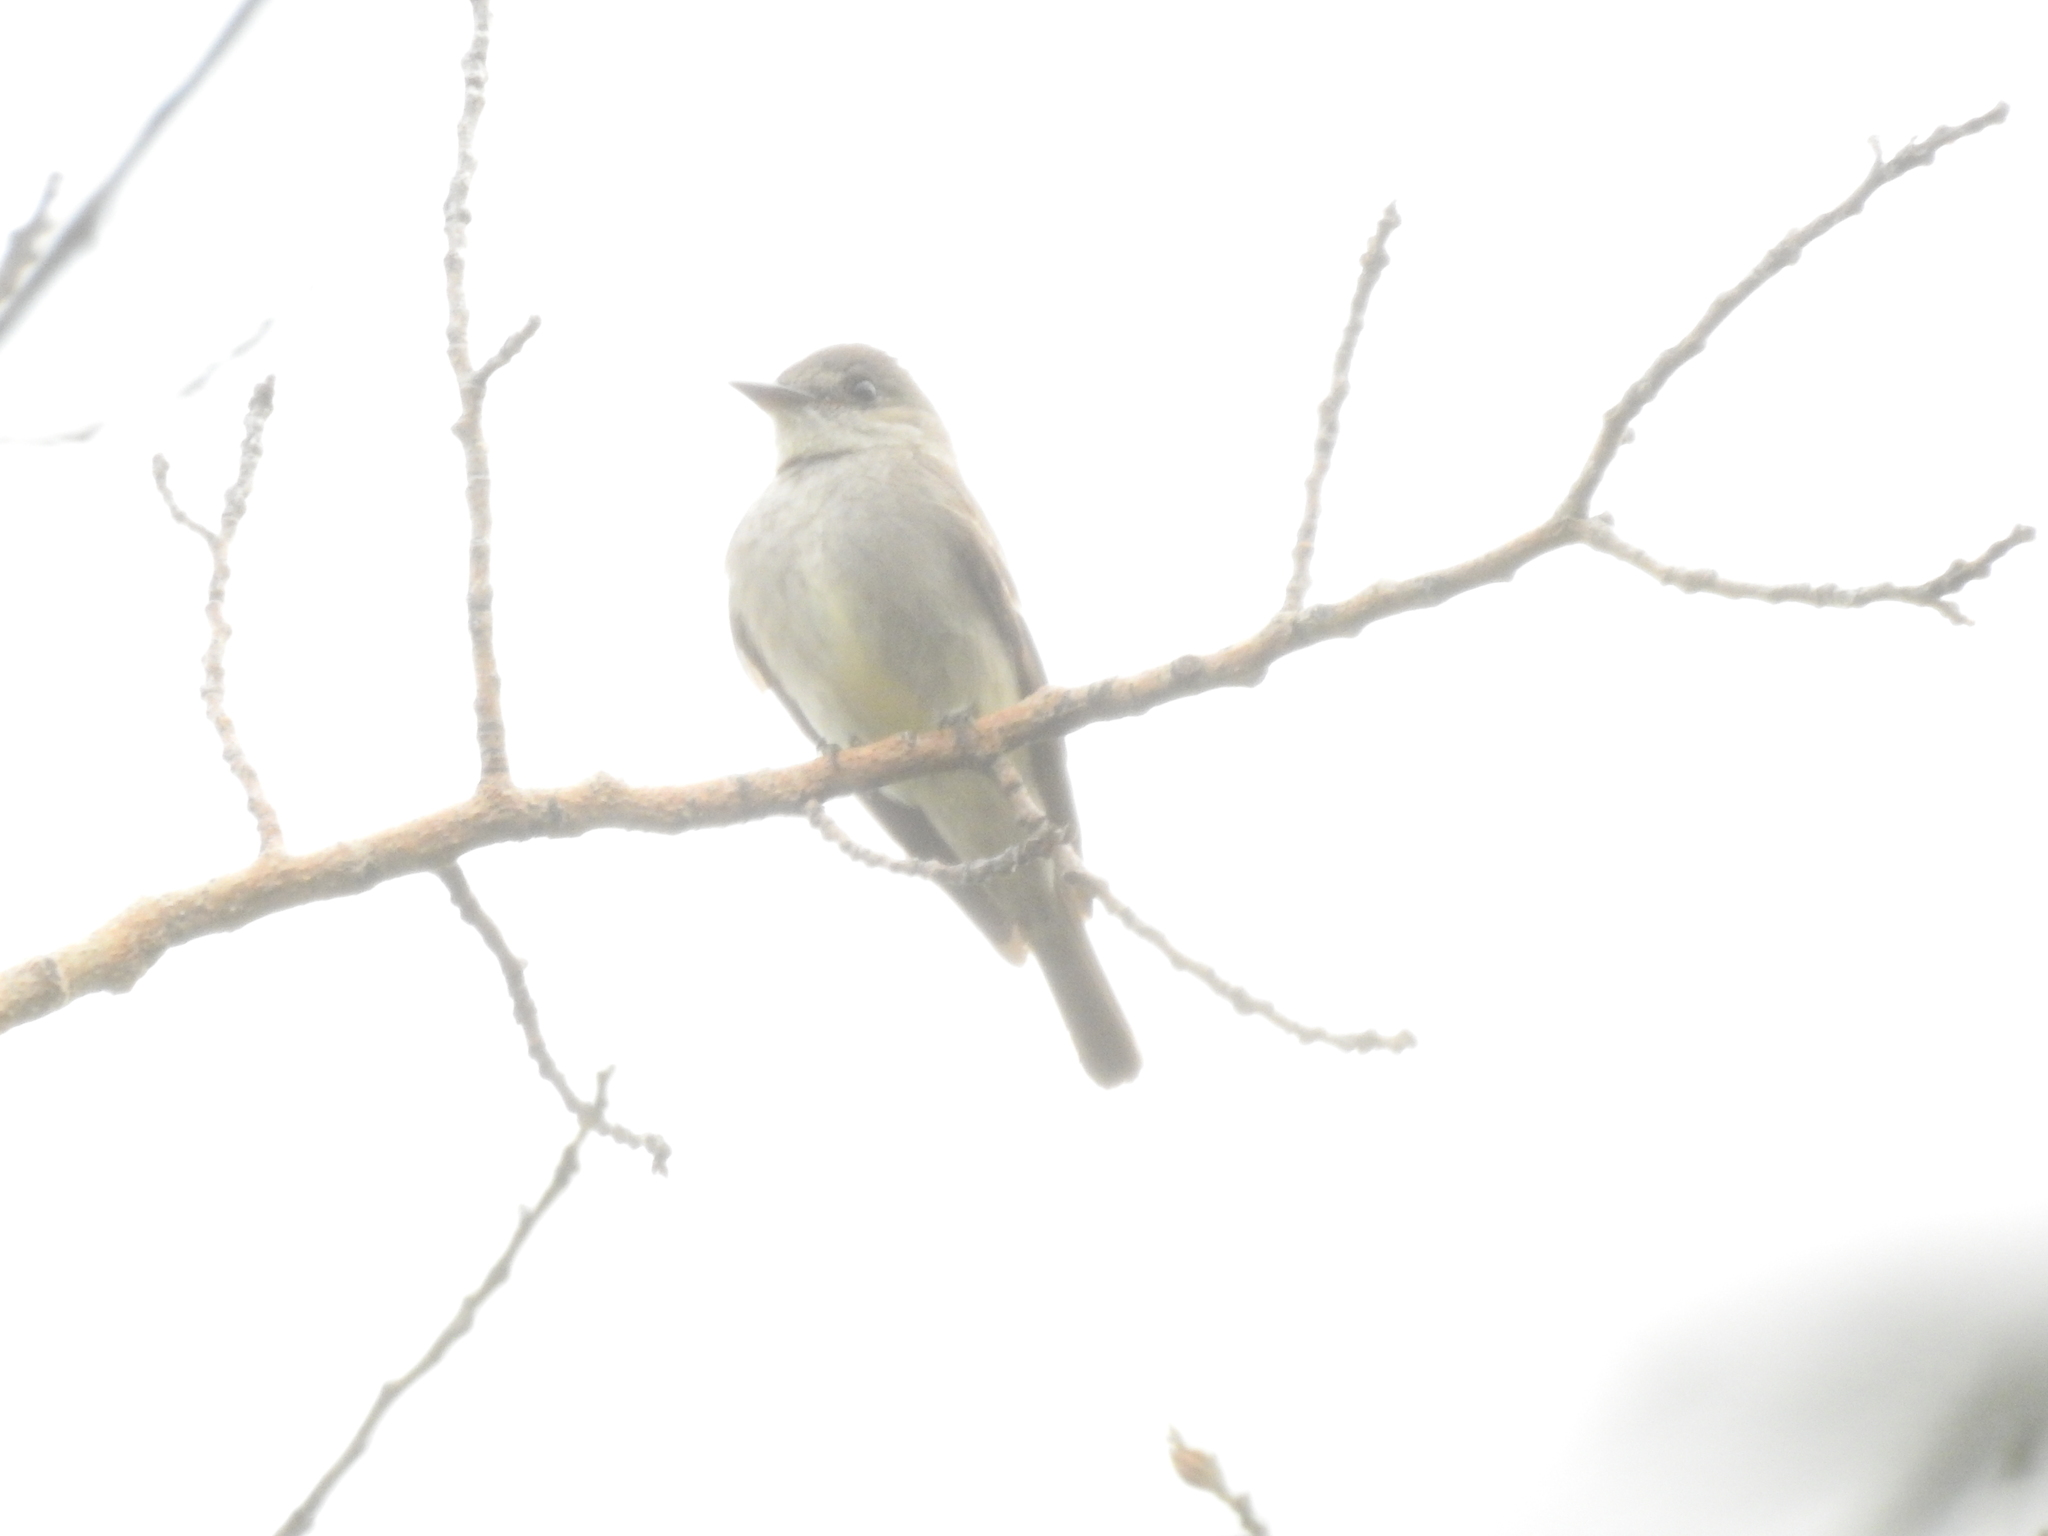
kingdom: Animalia
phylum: Chordata
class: Aves
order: Passeriformes
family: Tyrannidae
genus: Contopus
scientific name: Contopus sordidulus
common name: Western wood-pewee
